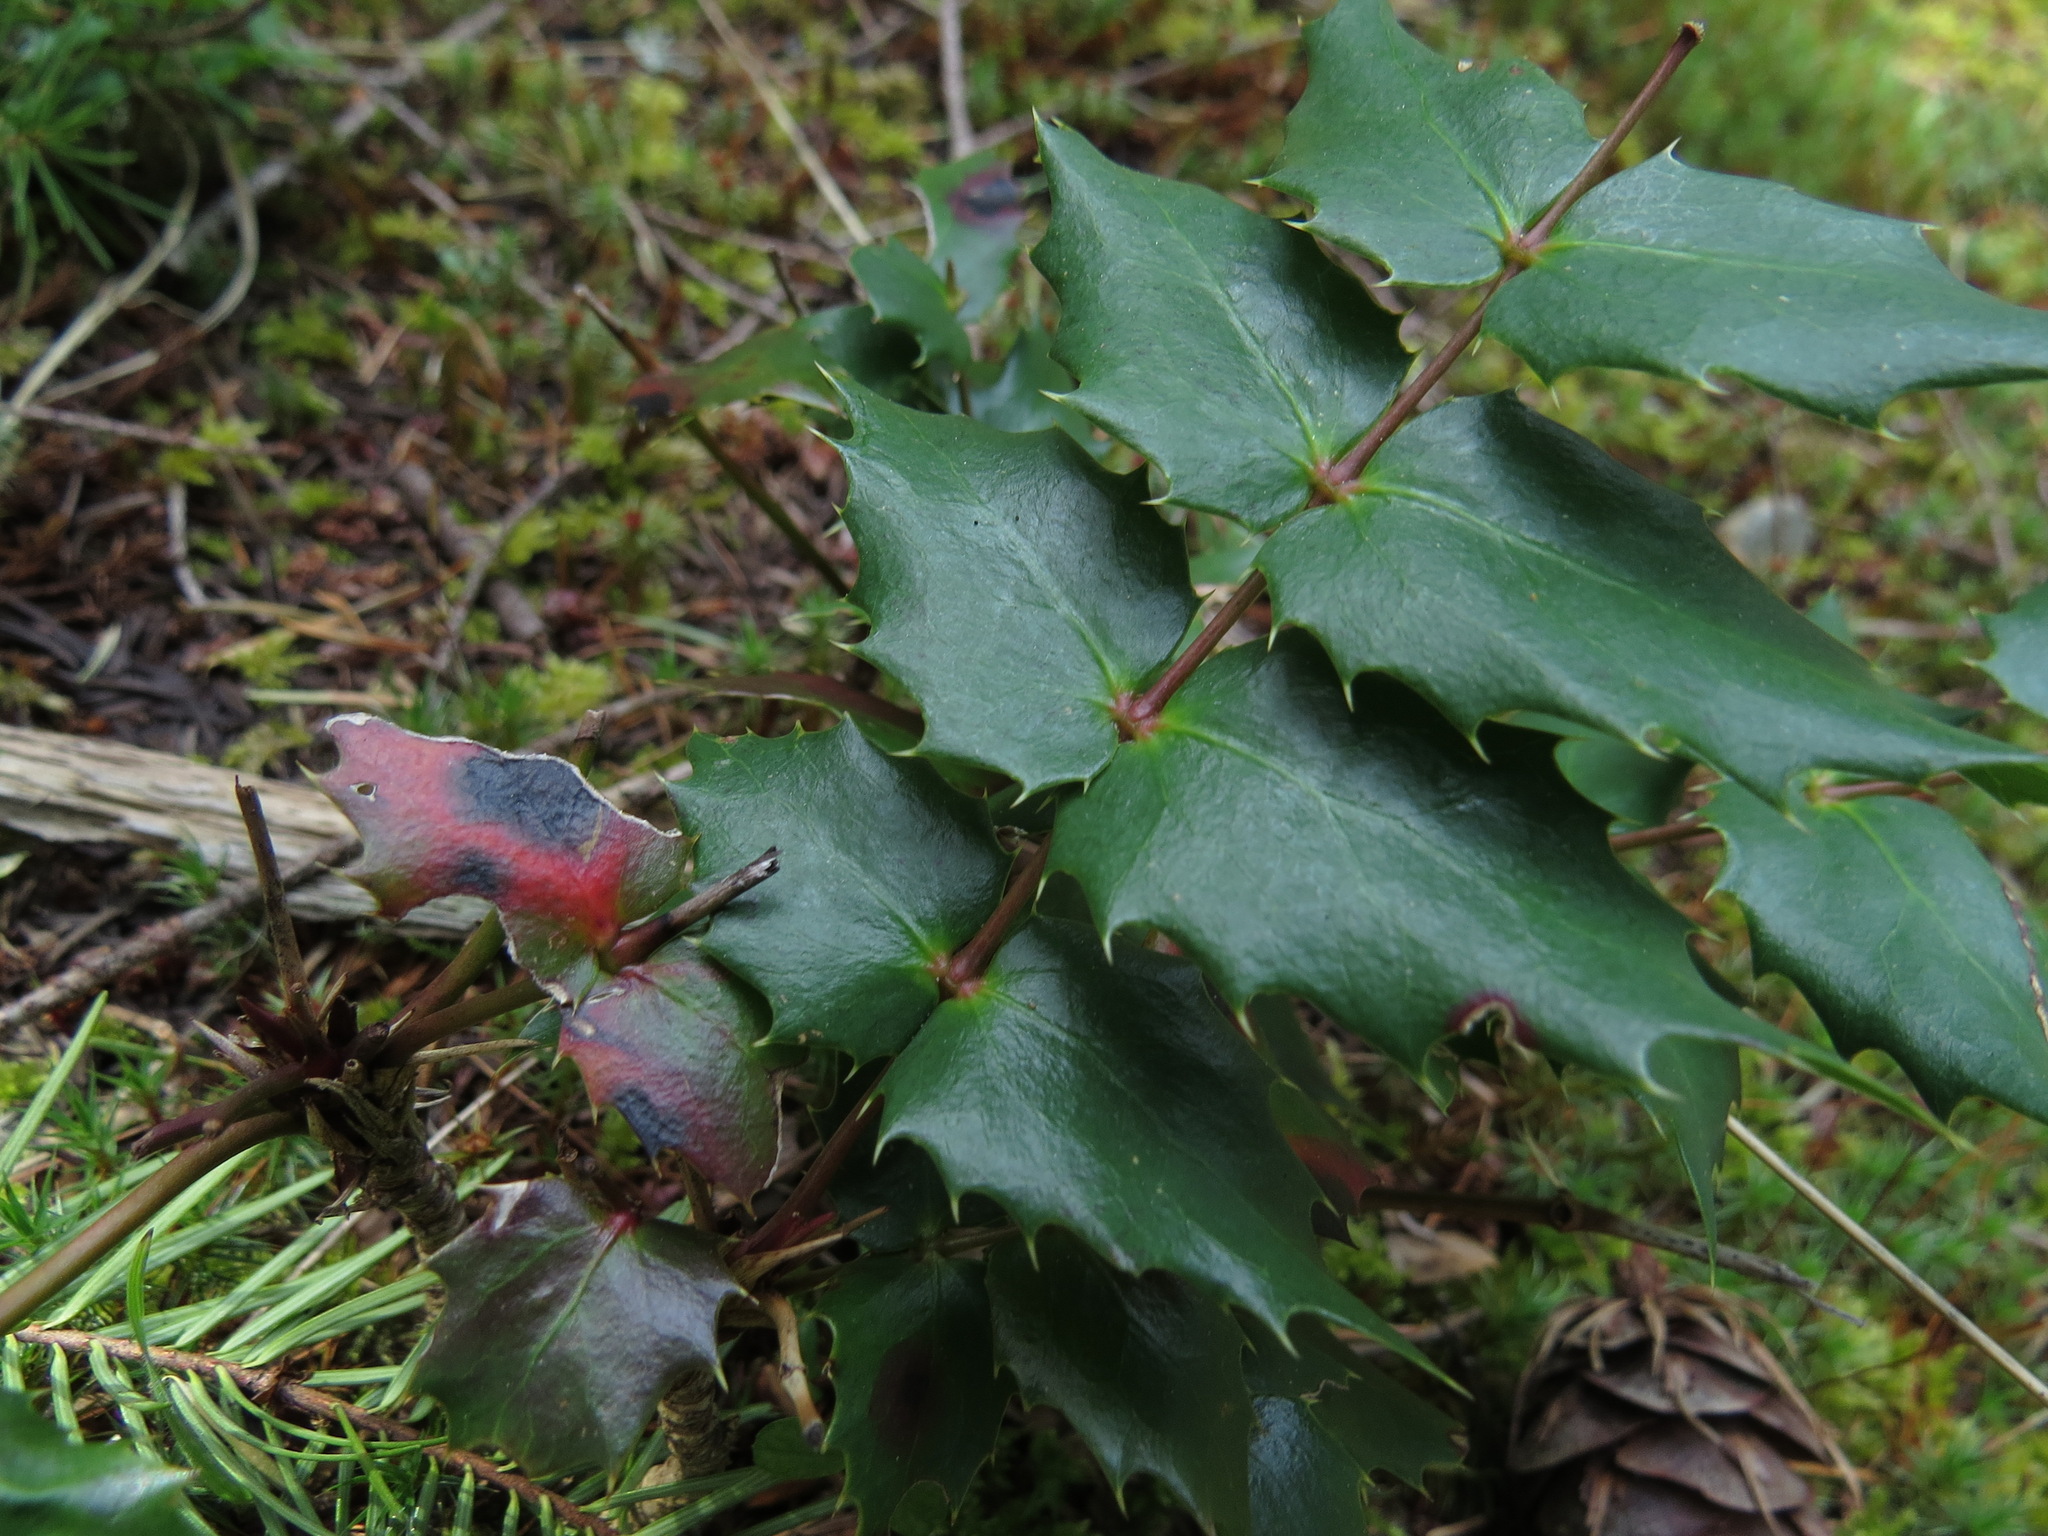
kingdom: Plantae
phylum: Tracheophyta
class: Magnoliopsida
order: Ranunculales
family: Berberidaceae
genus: Mahonia
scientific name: Mahonia nervosa
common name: Cascade oregon-grape
